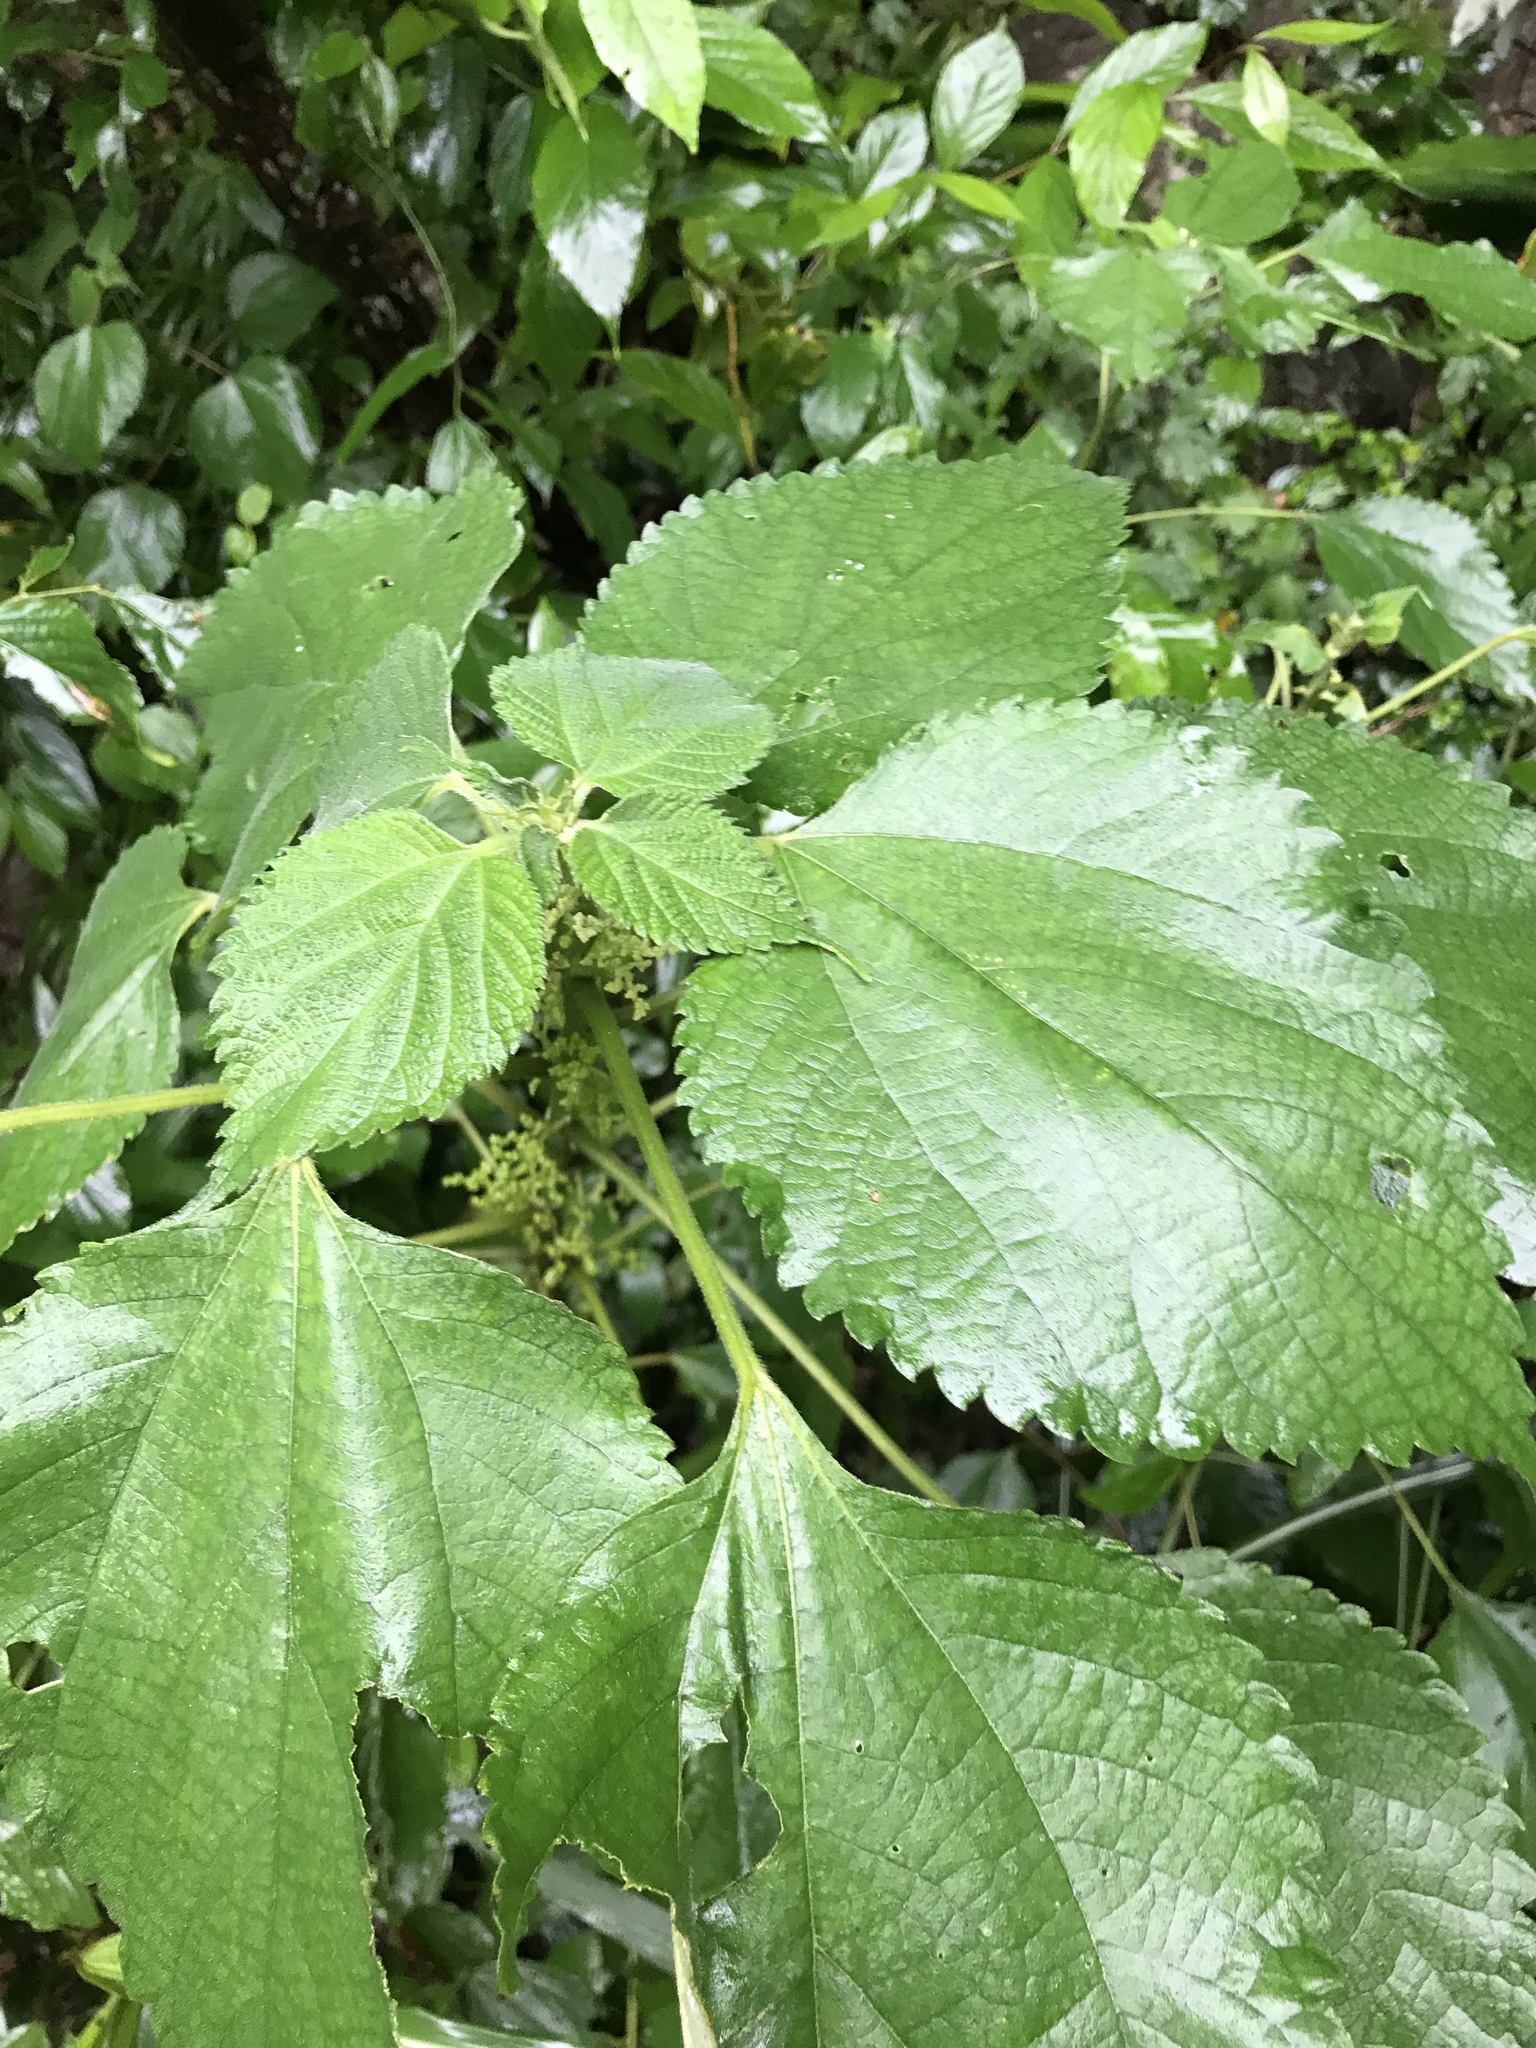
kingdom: Plantae
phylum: Tracheophyta
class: Magnoliopsida
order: Rosales
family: Urticaceae
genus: Boehmeria
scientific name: Boehmeria nivea
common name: Ramie chinese grass
